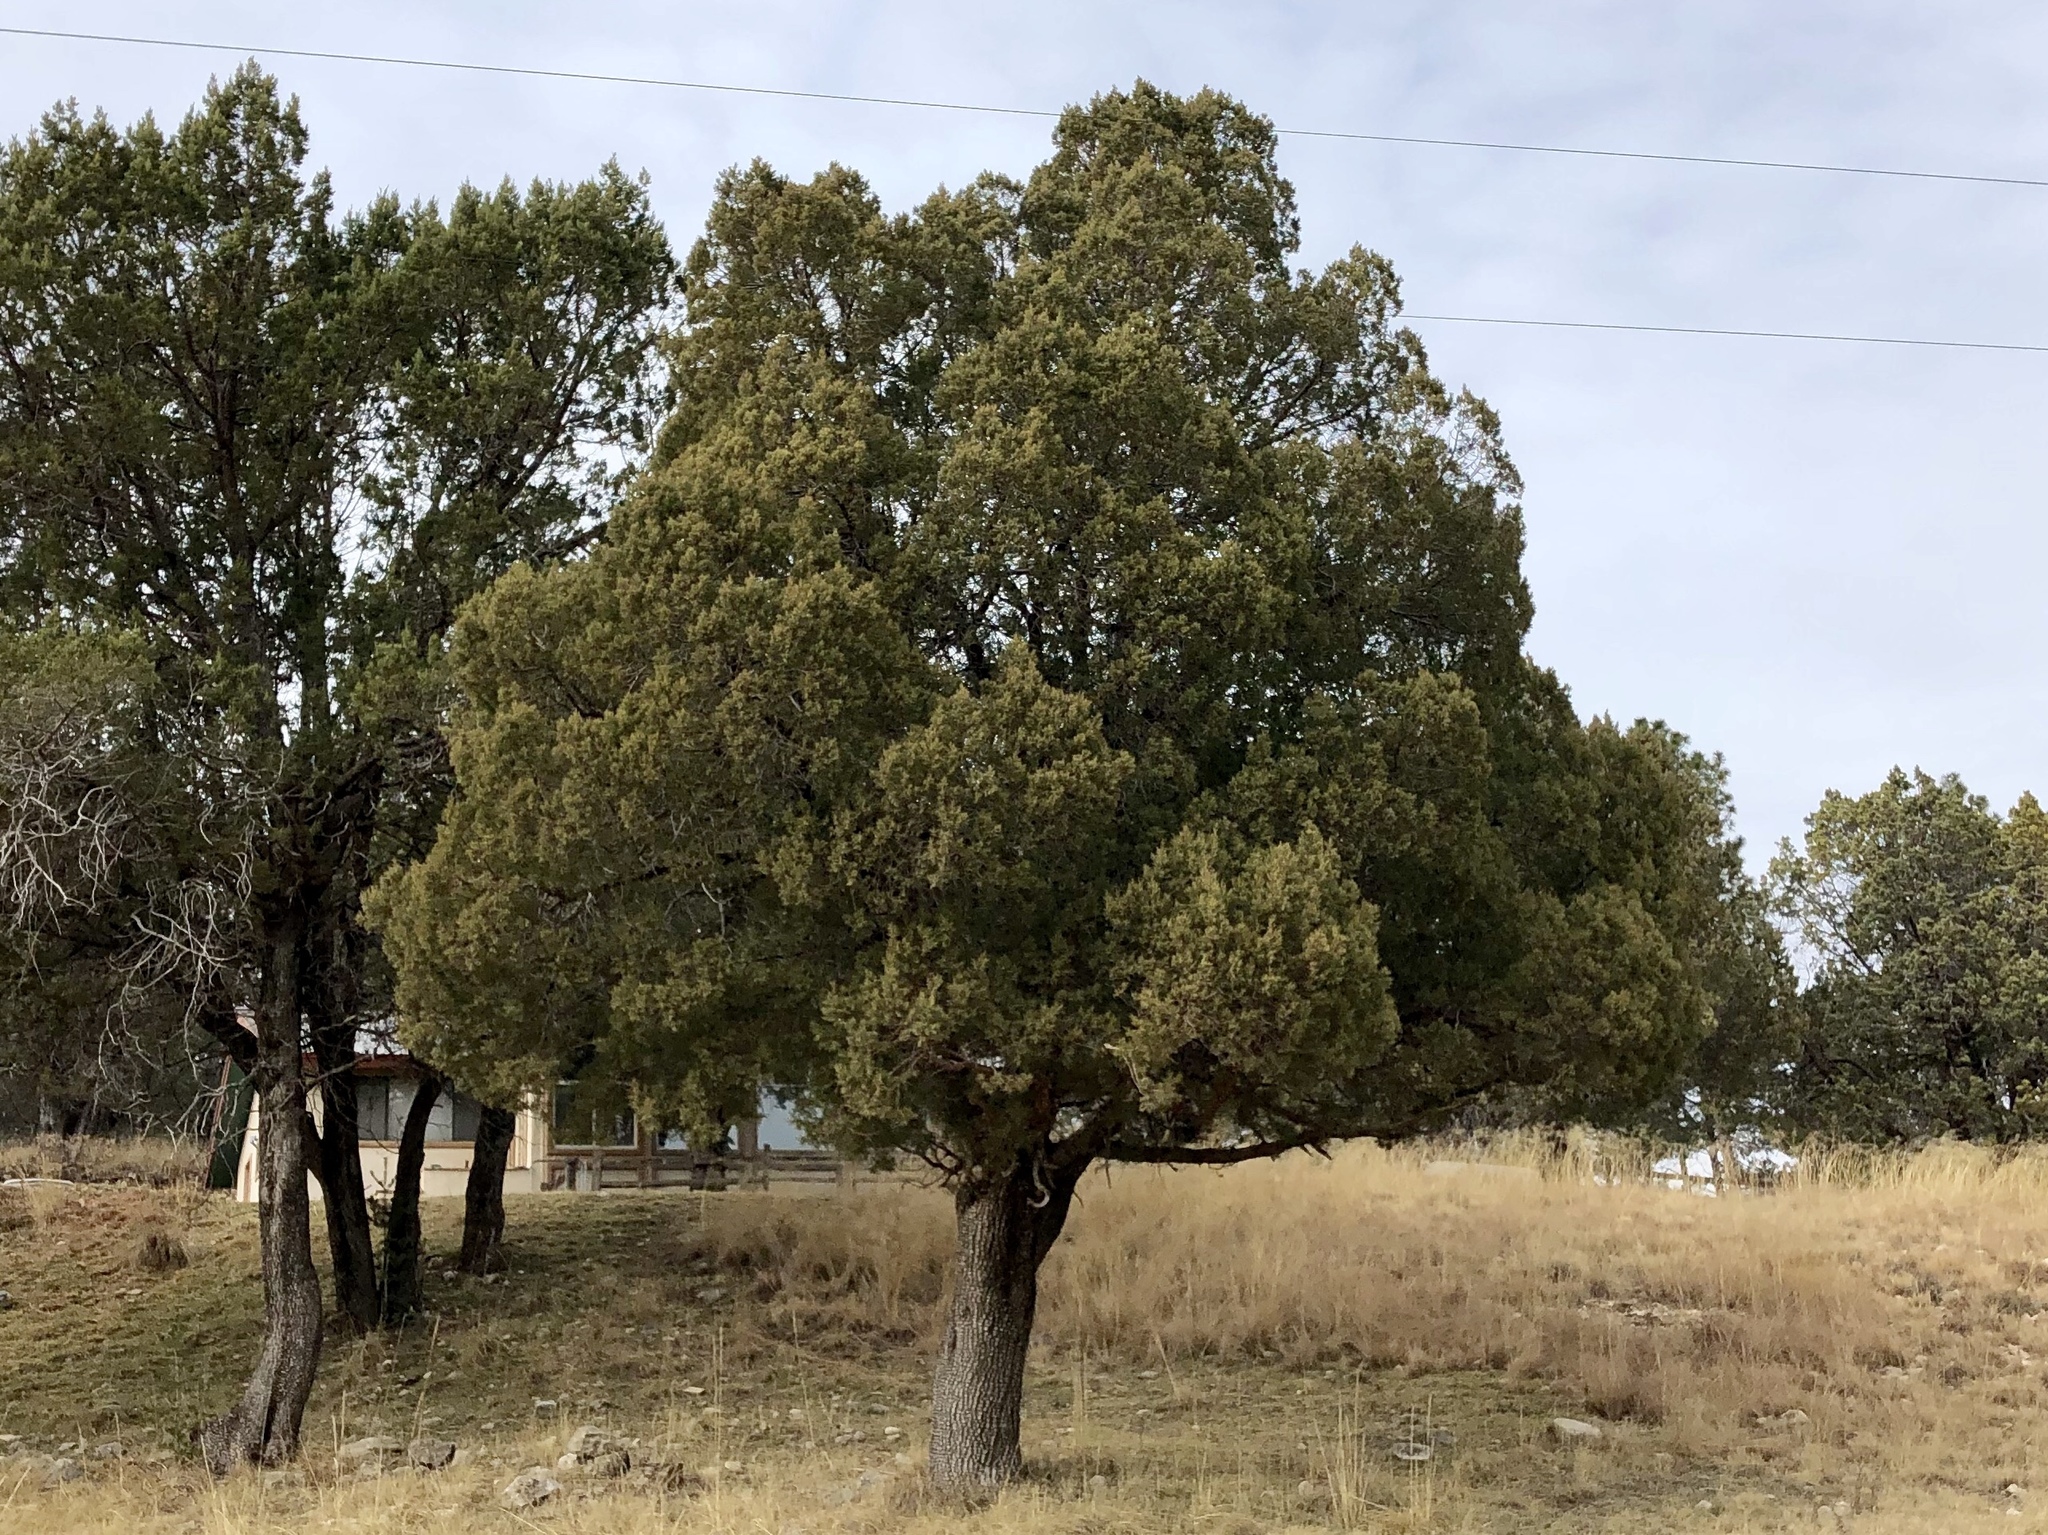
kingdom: Plantae
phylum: Tracheophyta
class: Pinopsida
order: Pinales
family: Cupressaceae
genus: Juniperus
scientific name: Juniperus deppeana
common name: Alligator juniper
